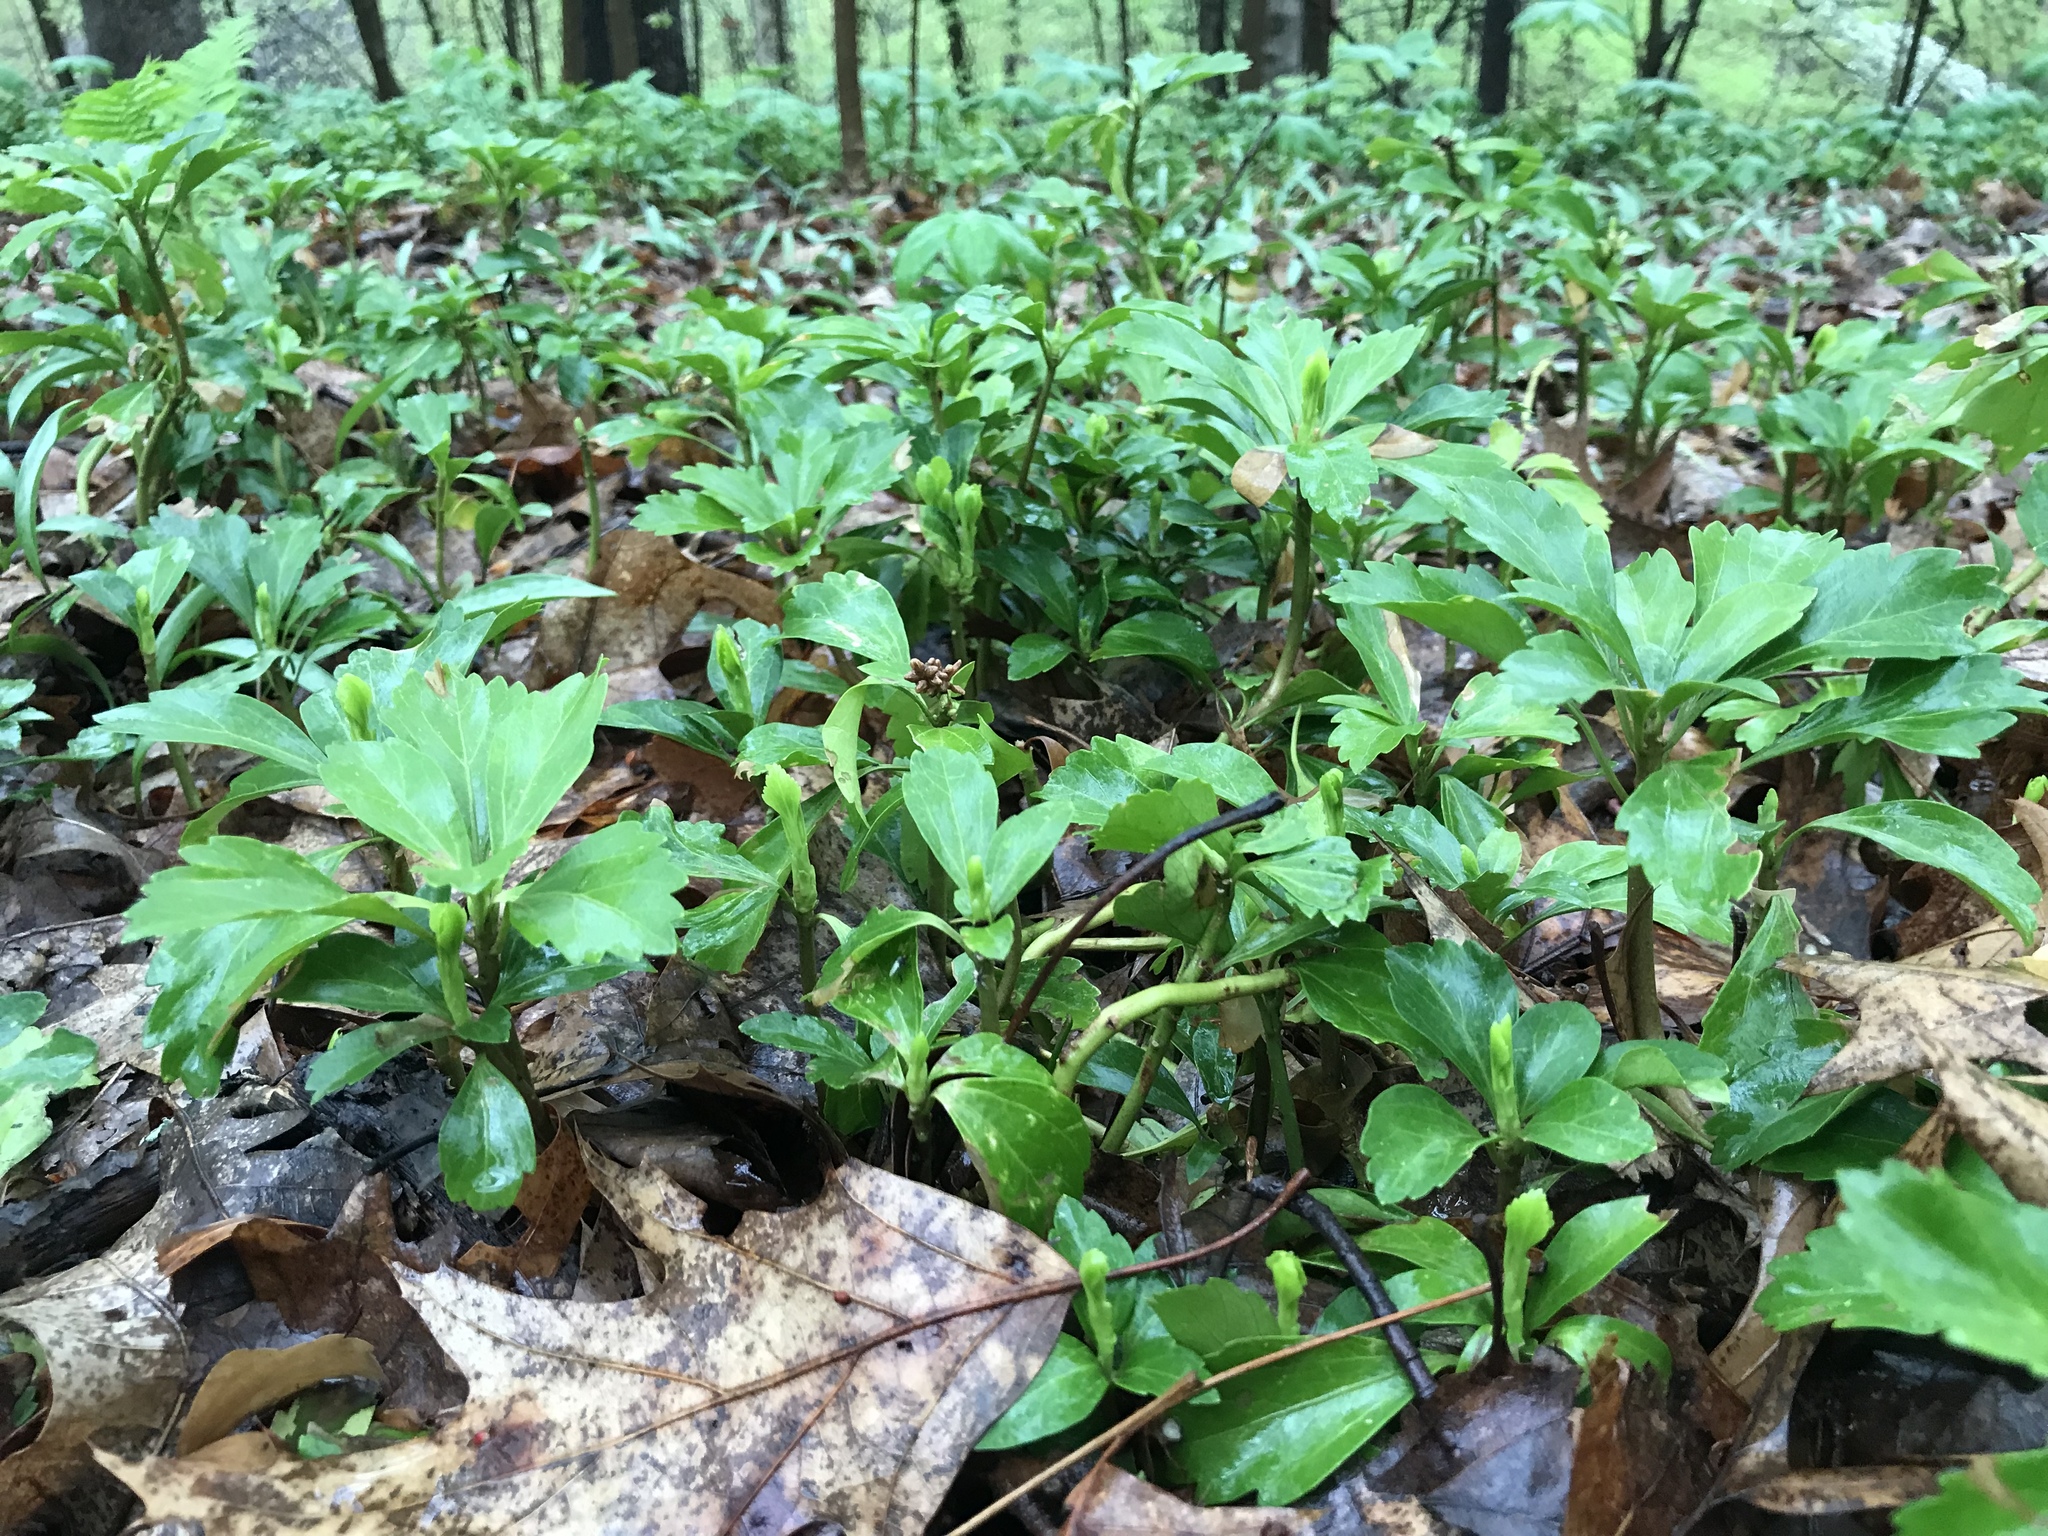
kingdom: Plantae
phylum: Tracheophyta
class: Magnoliopsida
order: Buxales
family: Buxaceae
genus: Pachysandra
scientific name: Pachysandra terminalis
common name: Japanese pachysandra
